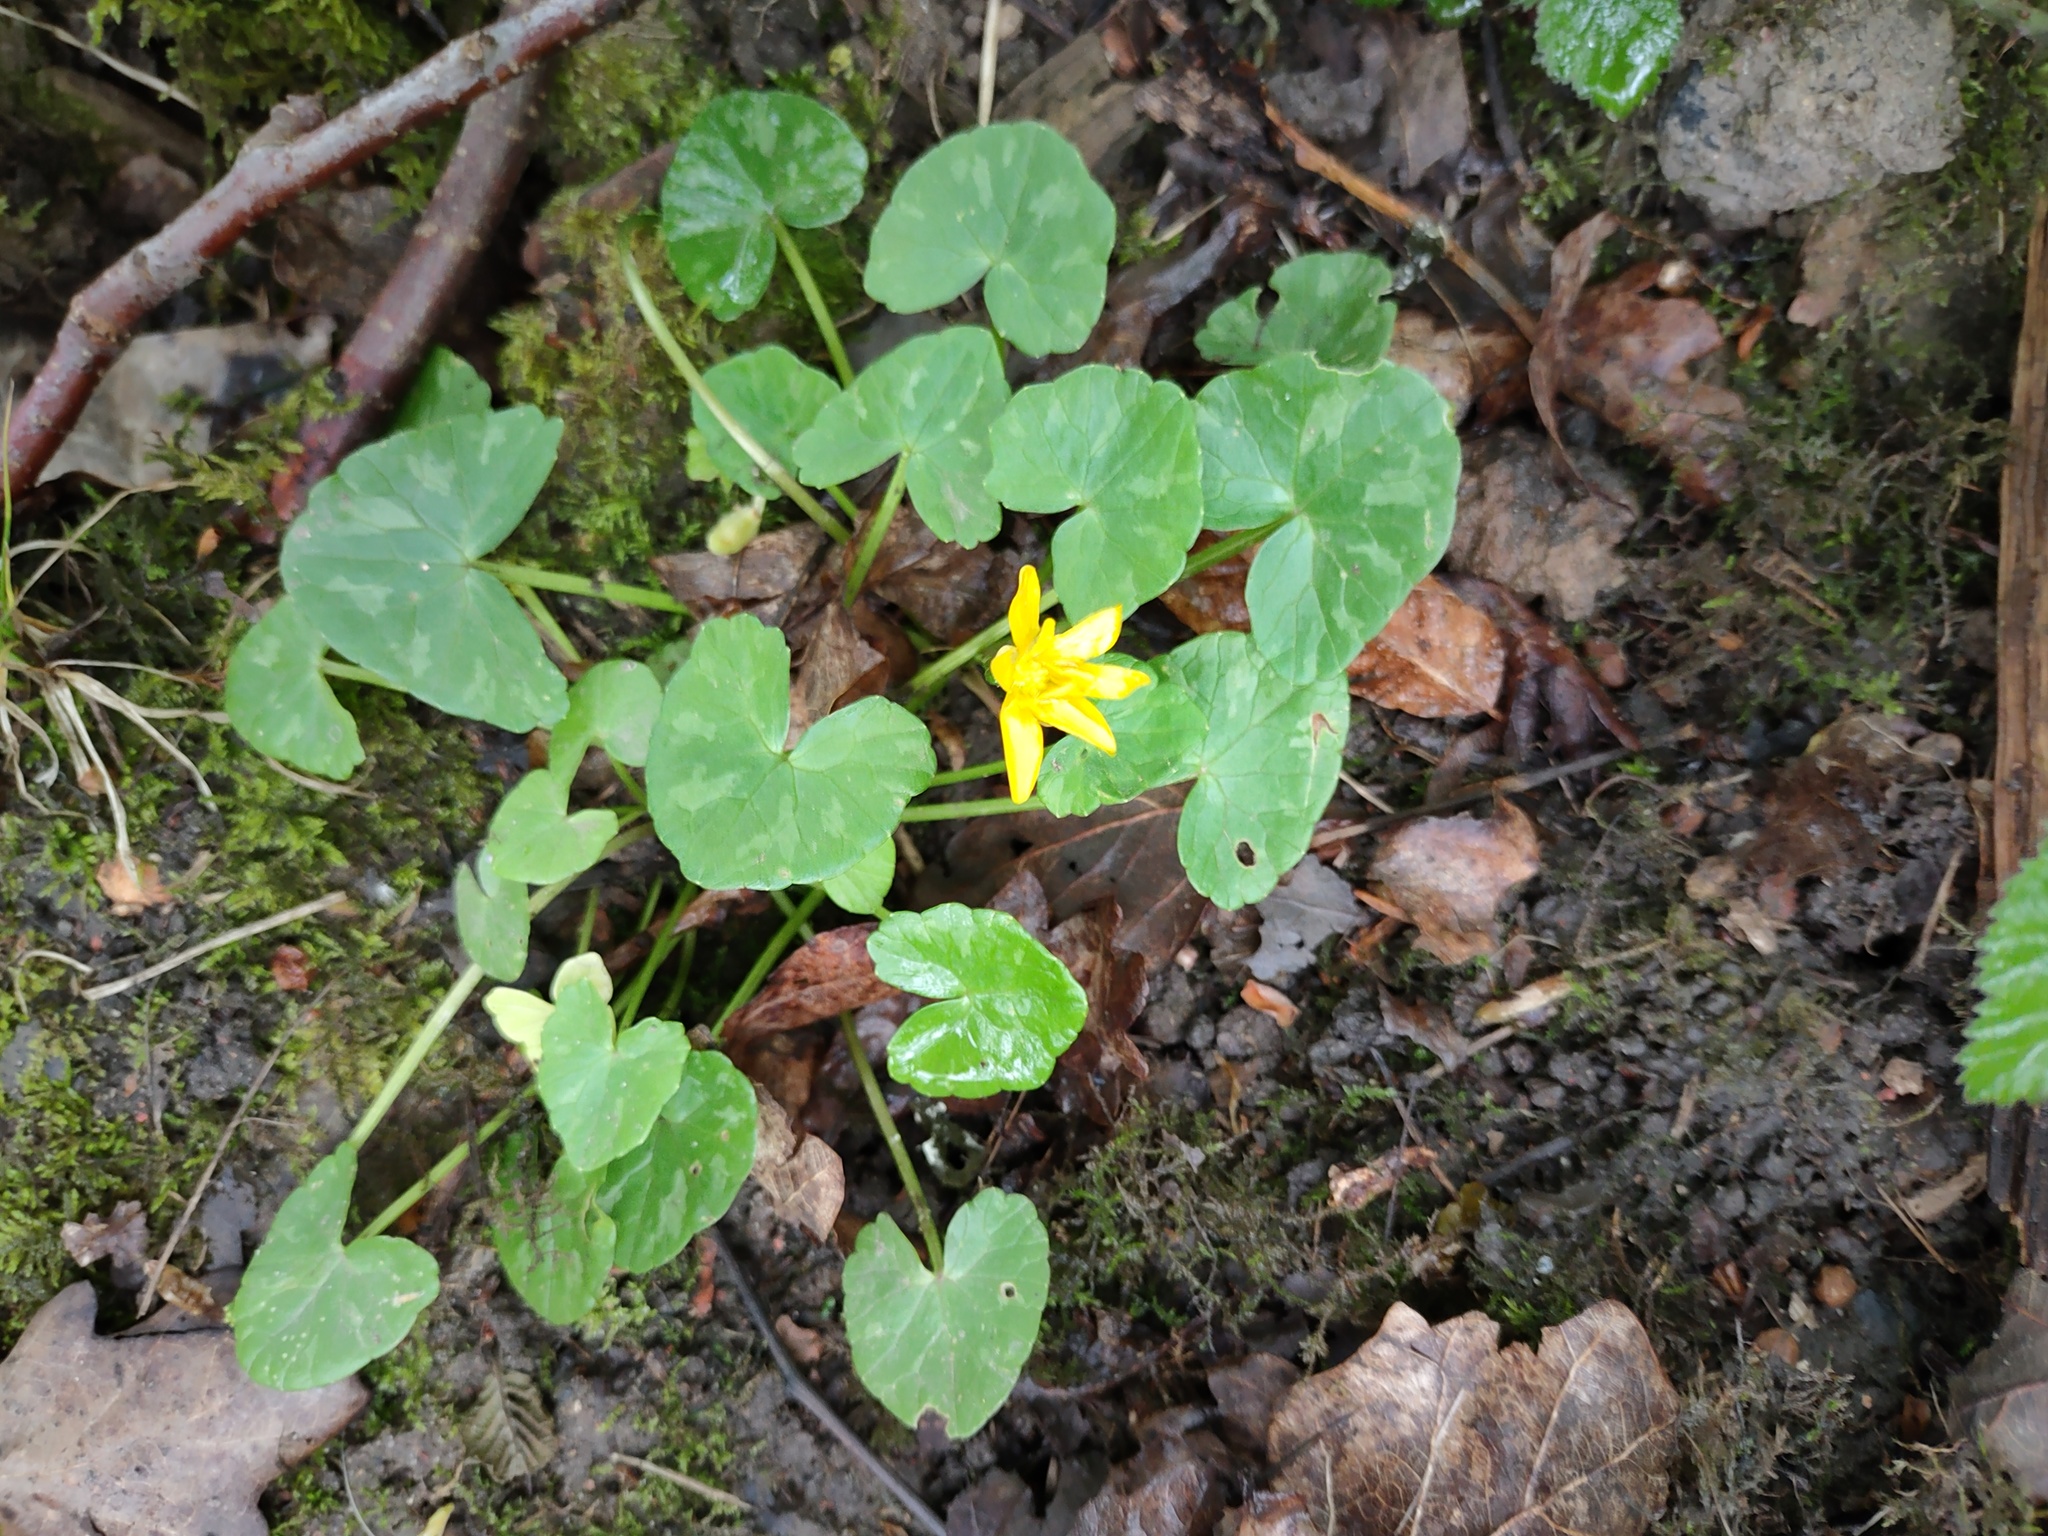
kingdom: Plantae
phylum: Tracheophyta
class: Magnoliopsida
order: Ranunculales
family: Ranunculaceae
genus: Ficaria
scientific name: Ficaria verna
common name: Lesser celandine
